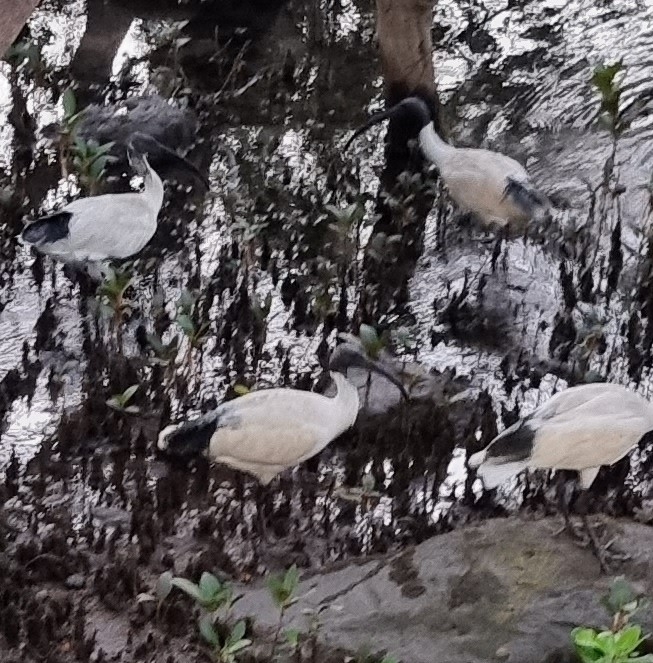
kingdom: Animalia
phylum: Chordata
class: Aves
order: Pelecaniformes
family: Threskiornithidae
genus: Threskiornis
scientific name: Threskiornis molucca
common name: Australian white ibis
